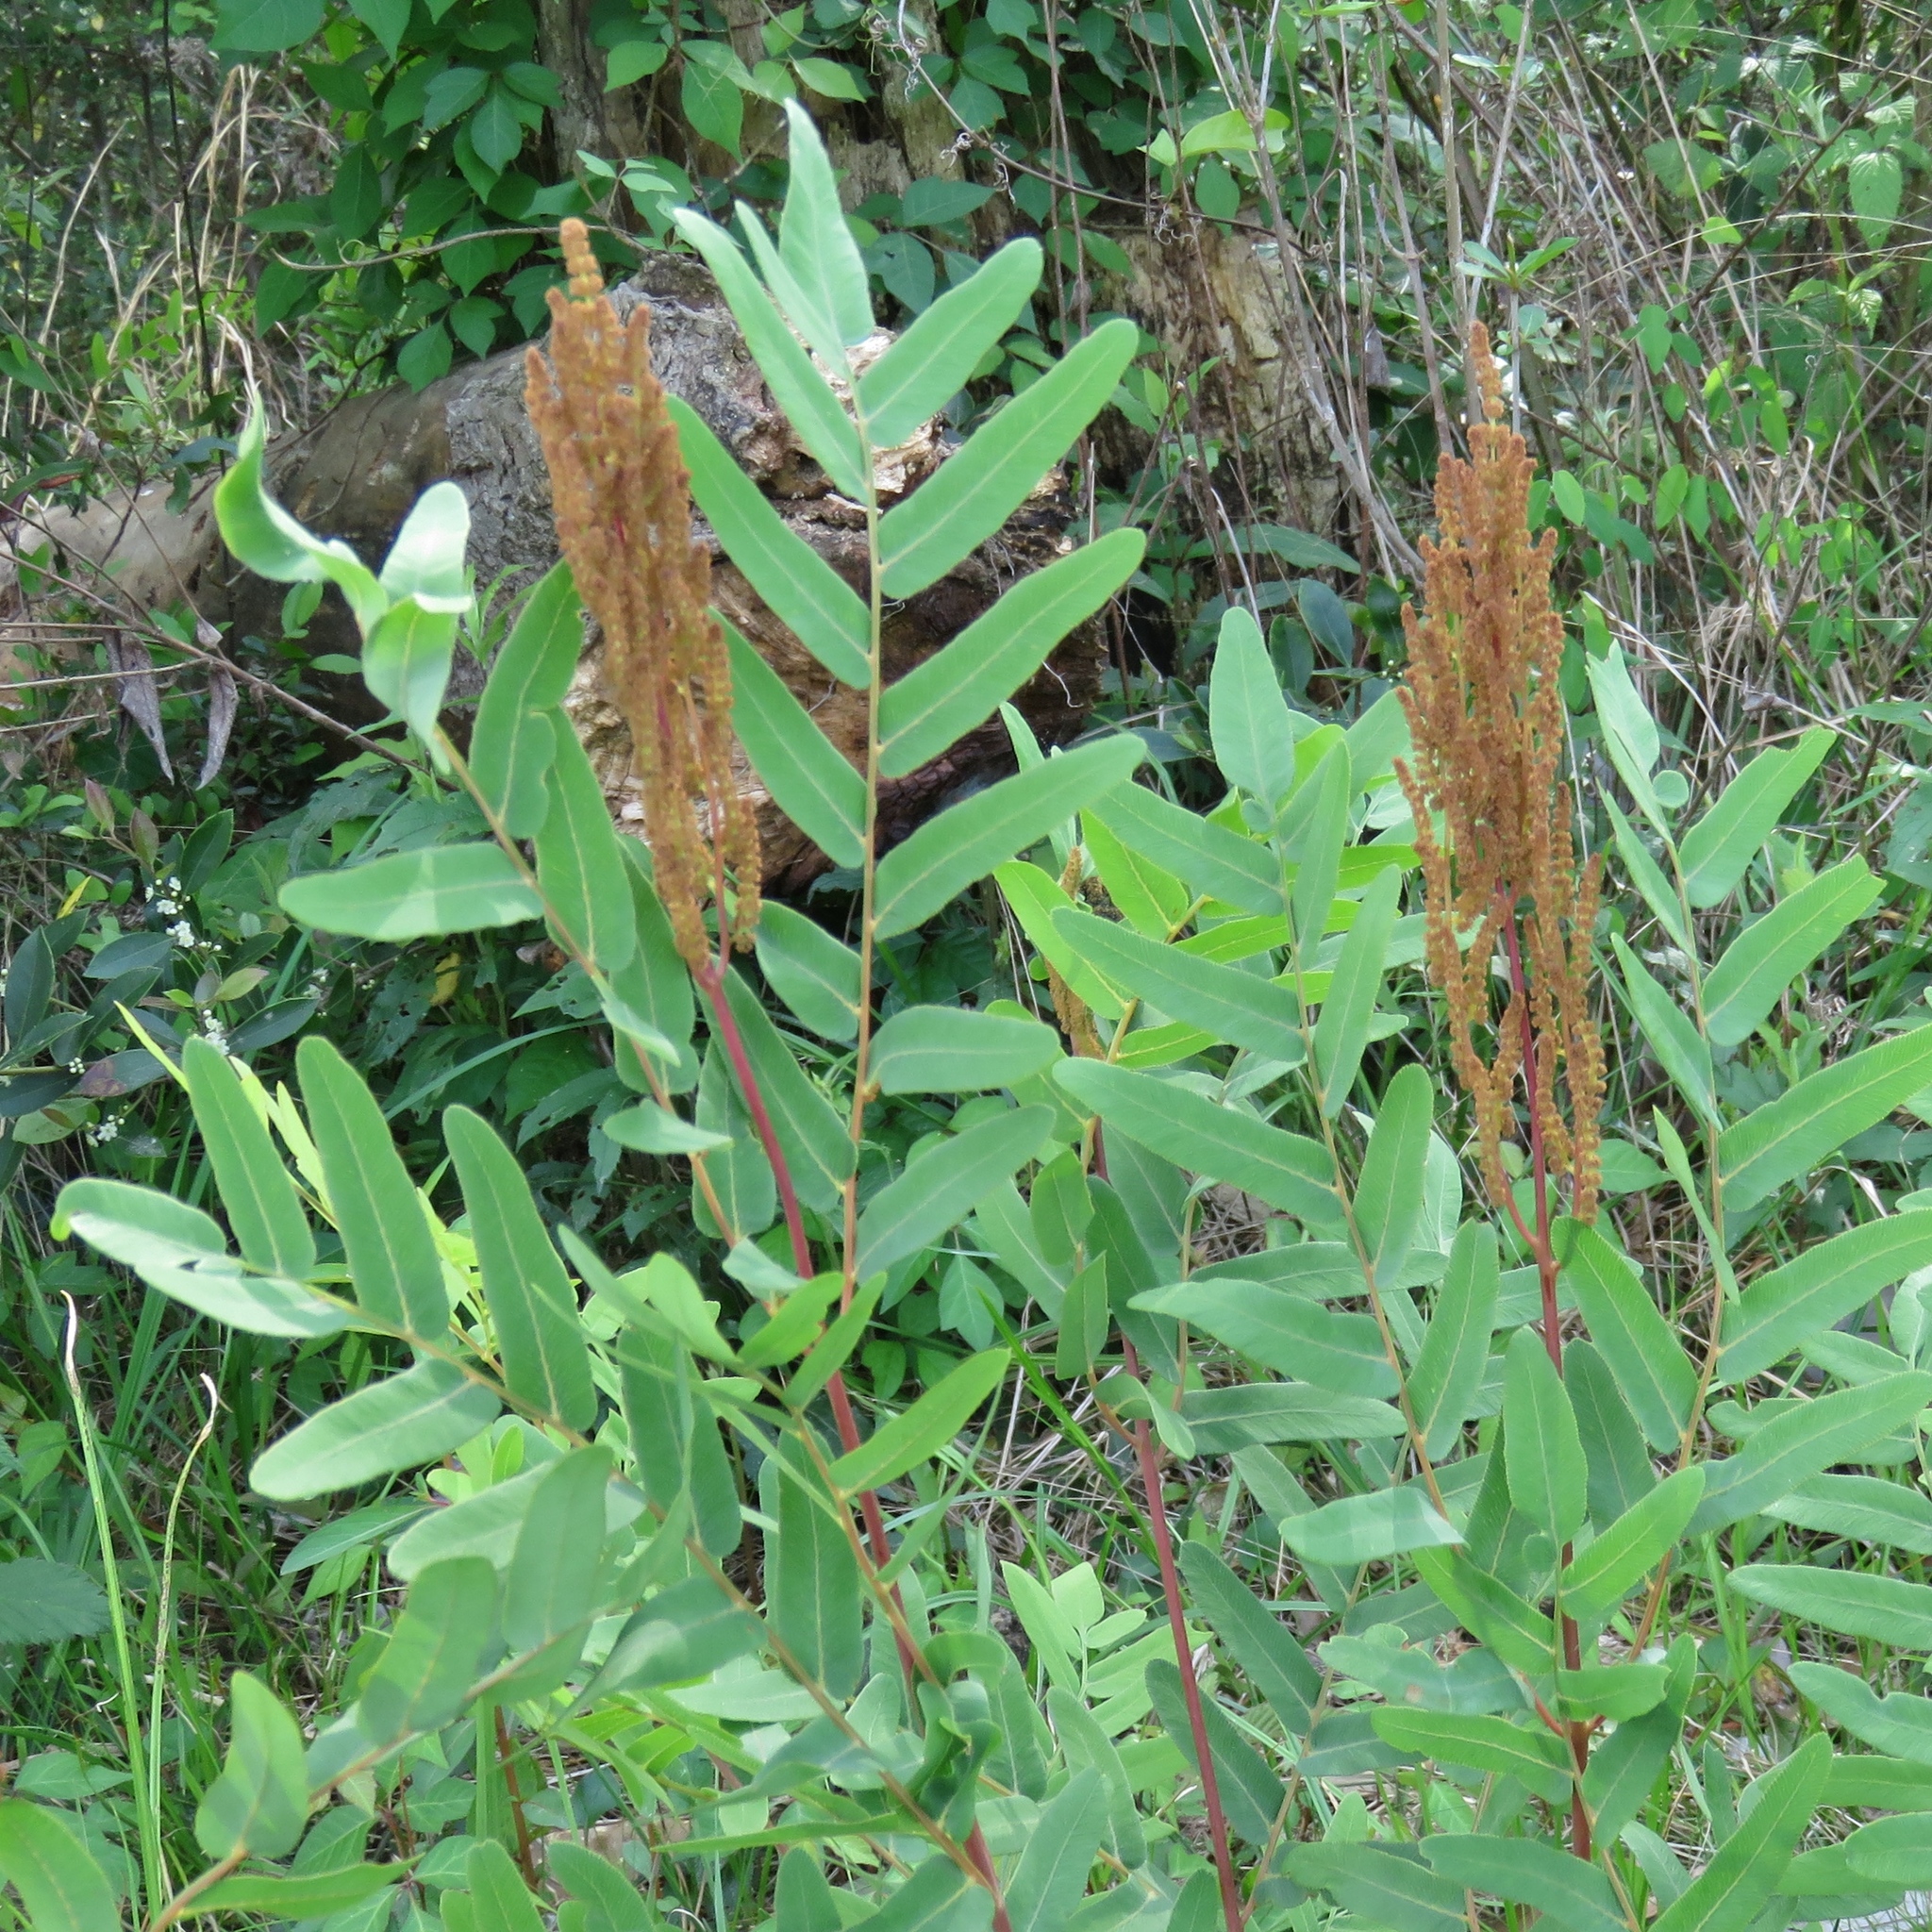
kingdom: Plantae
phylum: Tracheophyta
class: Polypodiopsida
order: Osmundales
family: Osmundaceae
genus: Osmunda
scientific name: Osmunda spectabilis
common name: American royal fern
